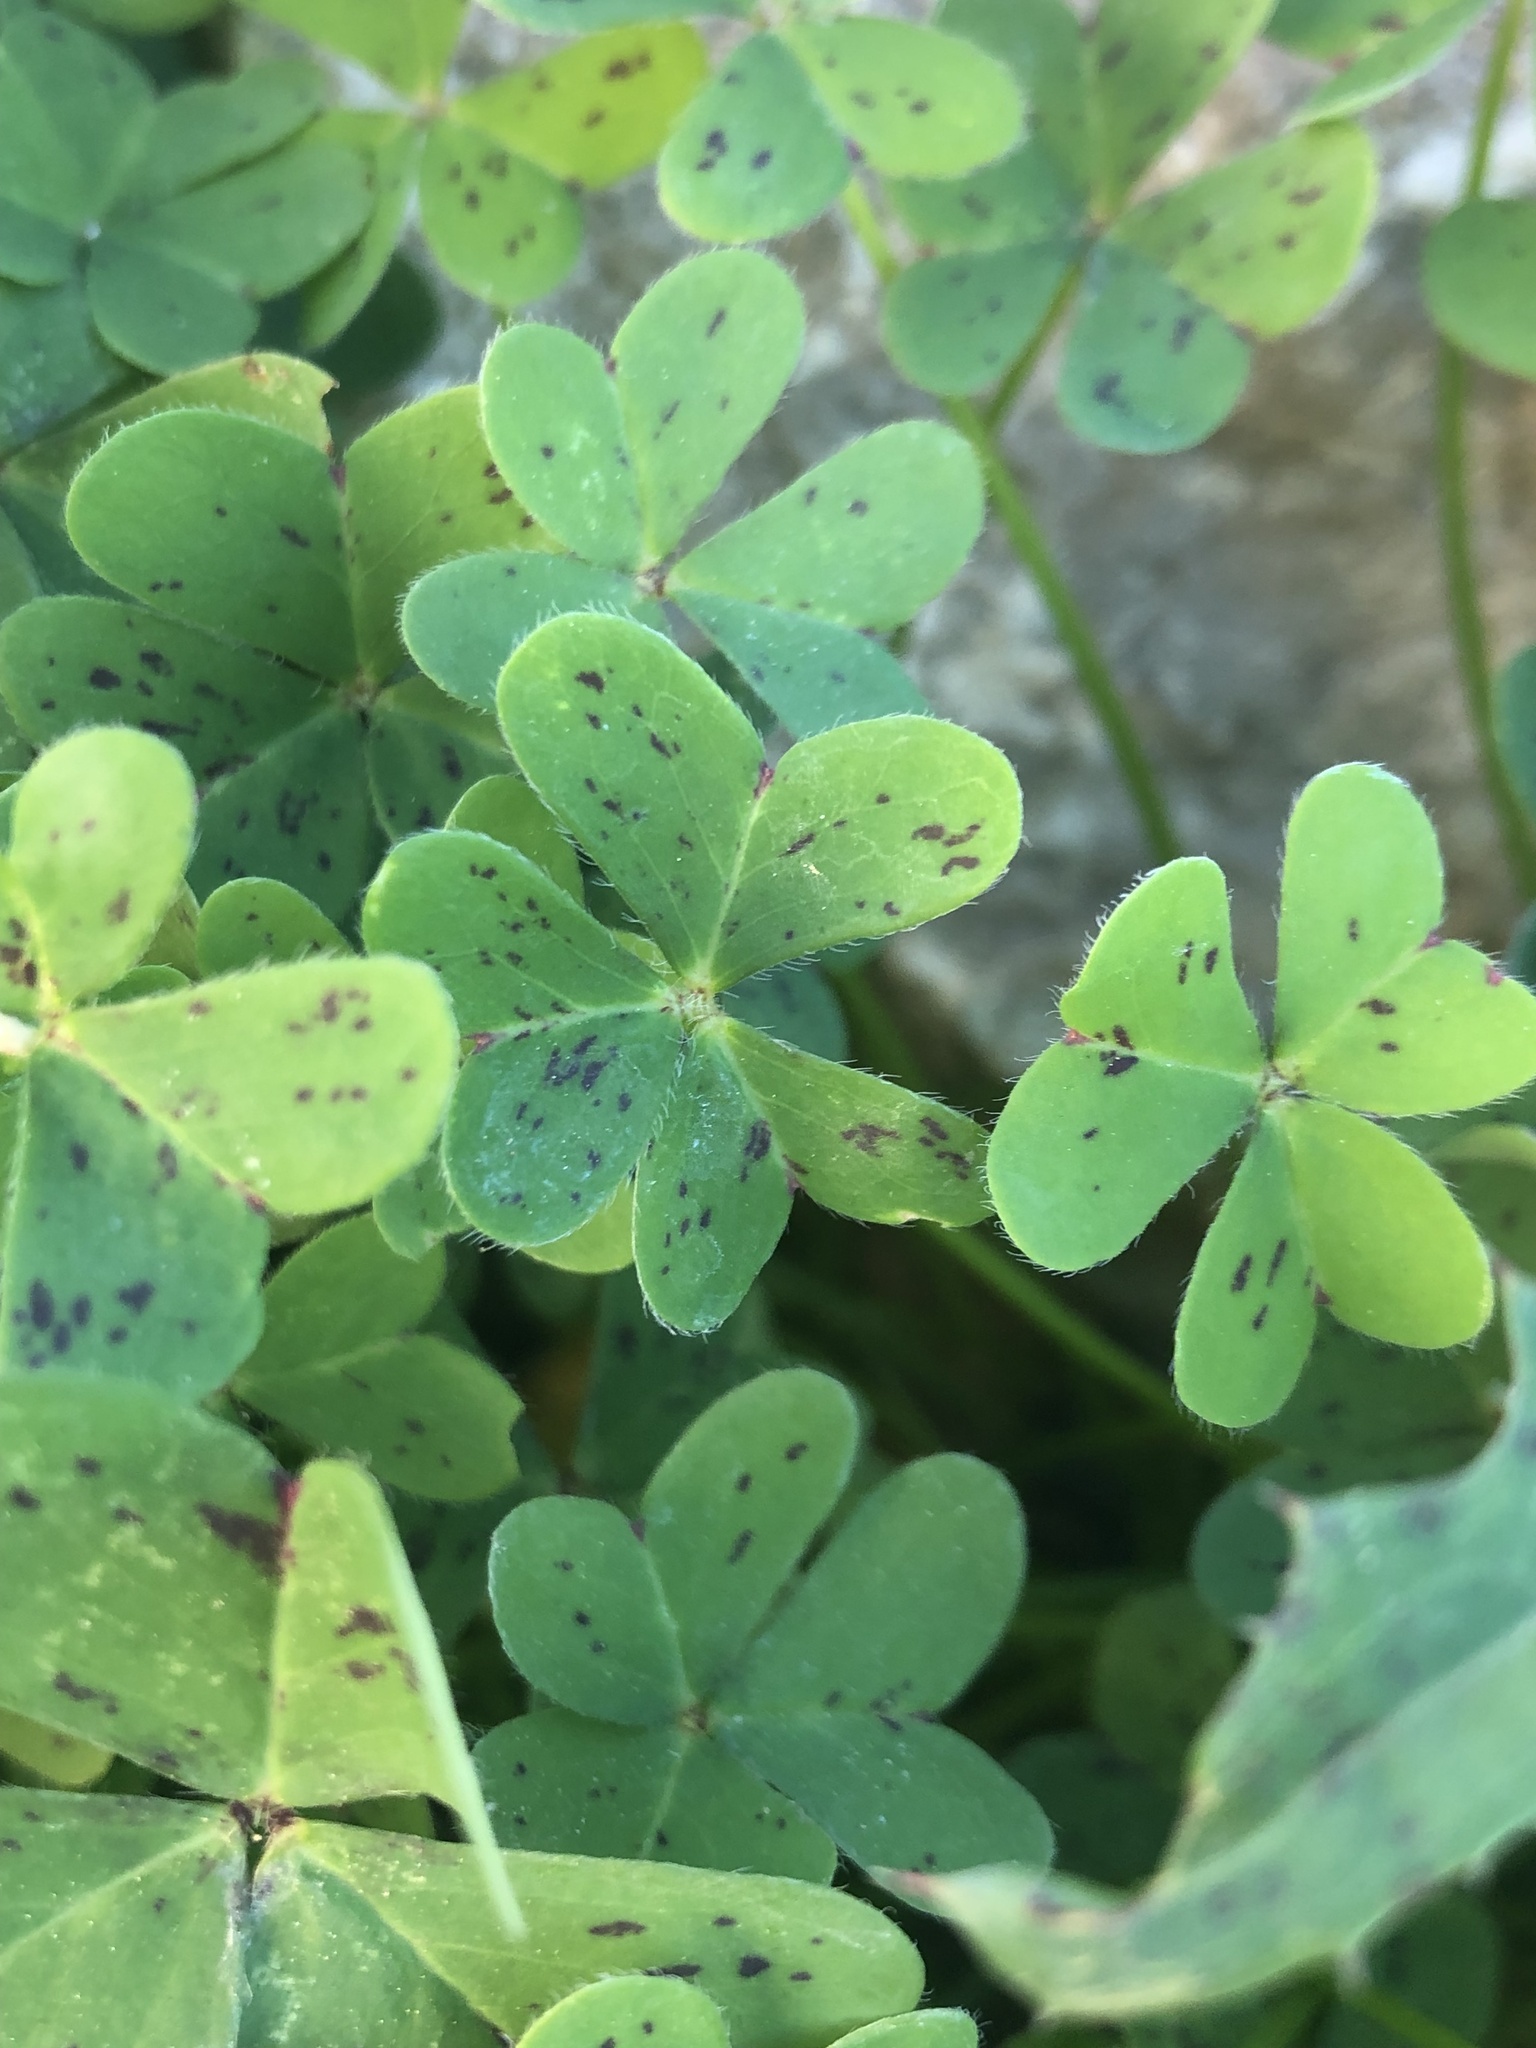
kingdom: Plantae
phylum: Tracheophyta
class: Magnoliopsida
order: Oxalidales
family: Oxalidaceae
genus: Oxalis
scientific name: Oxalis pes-caprae
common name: Bermuda-buttercup
